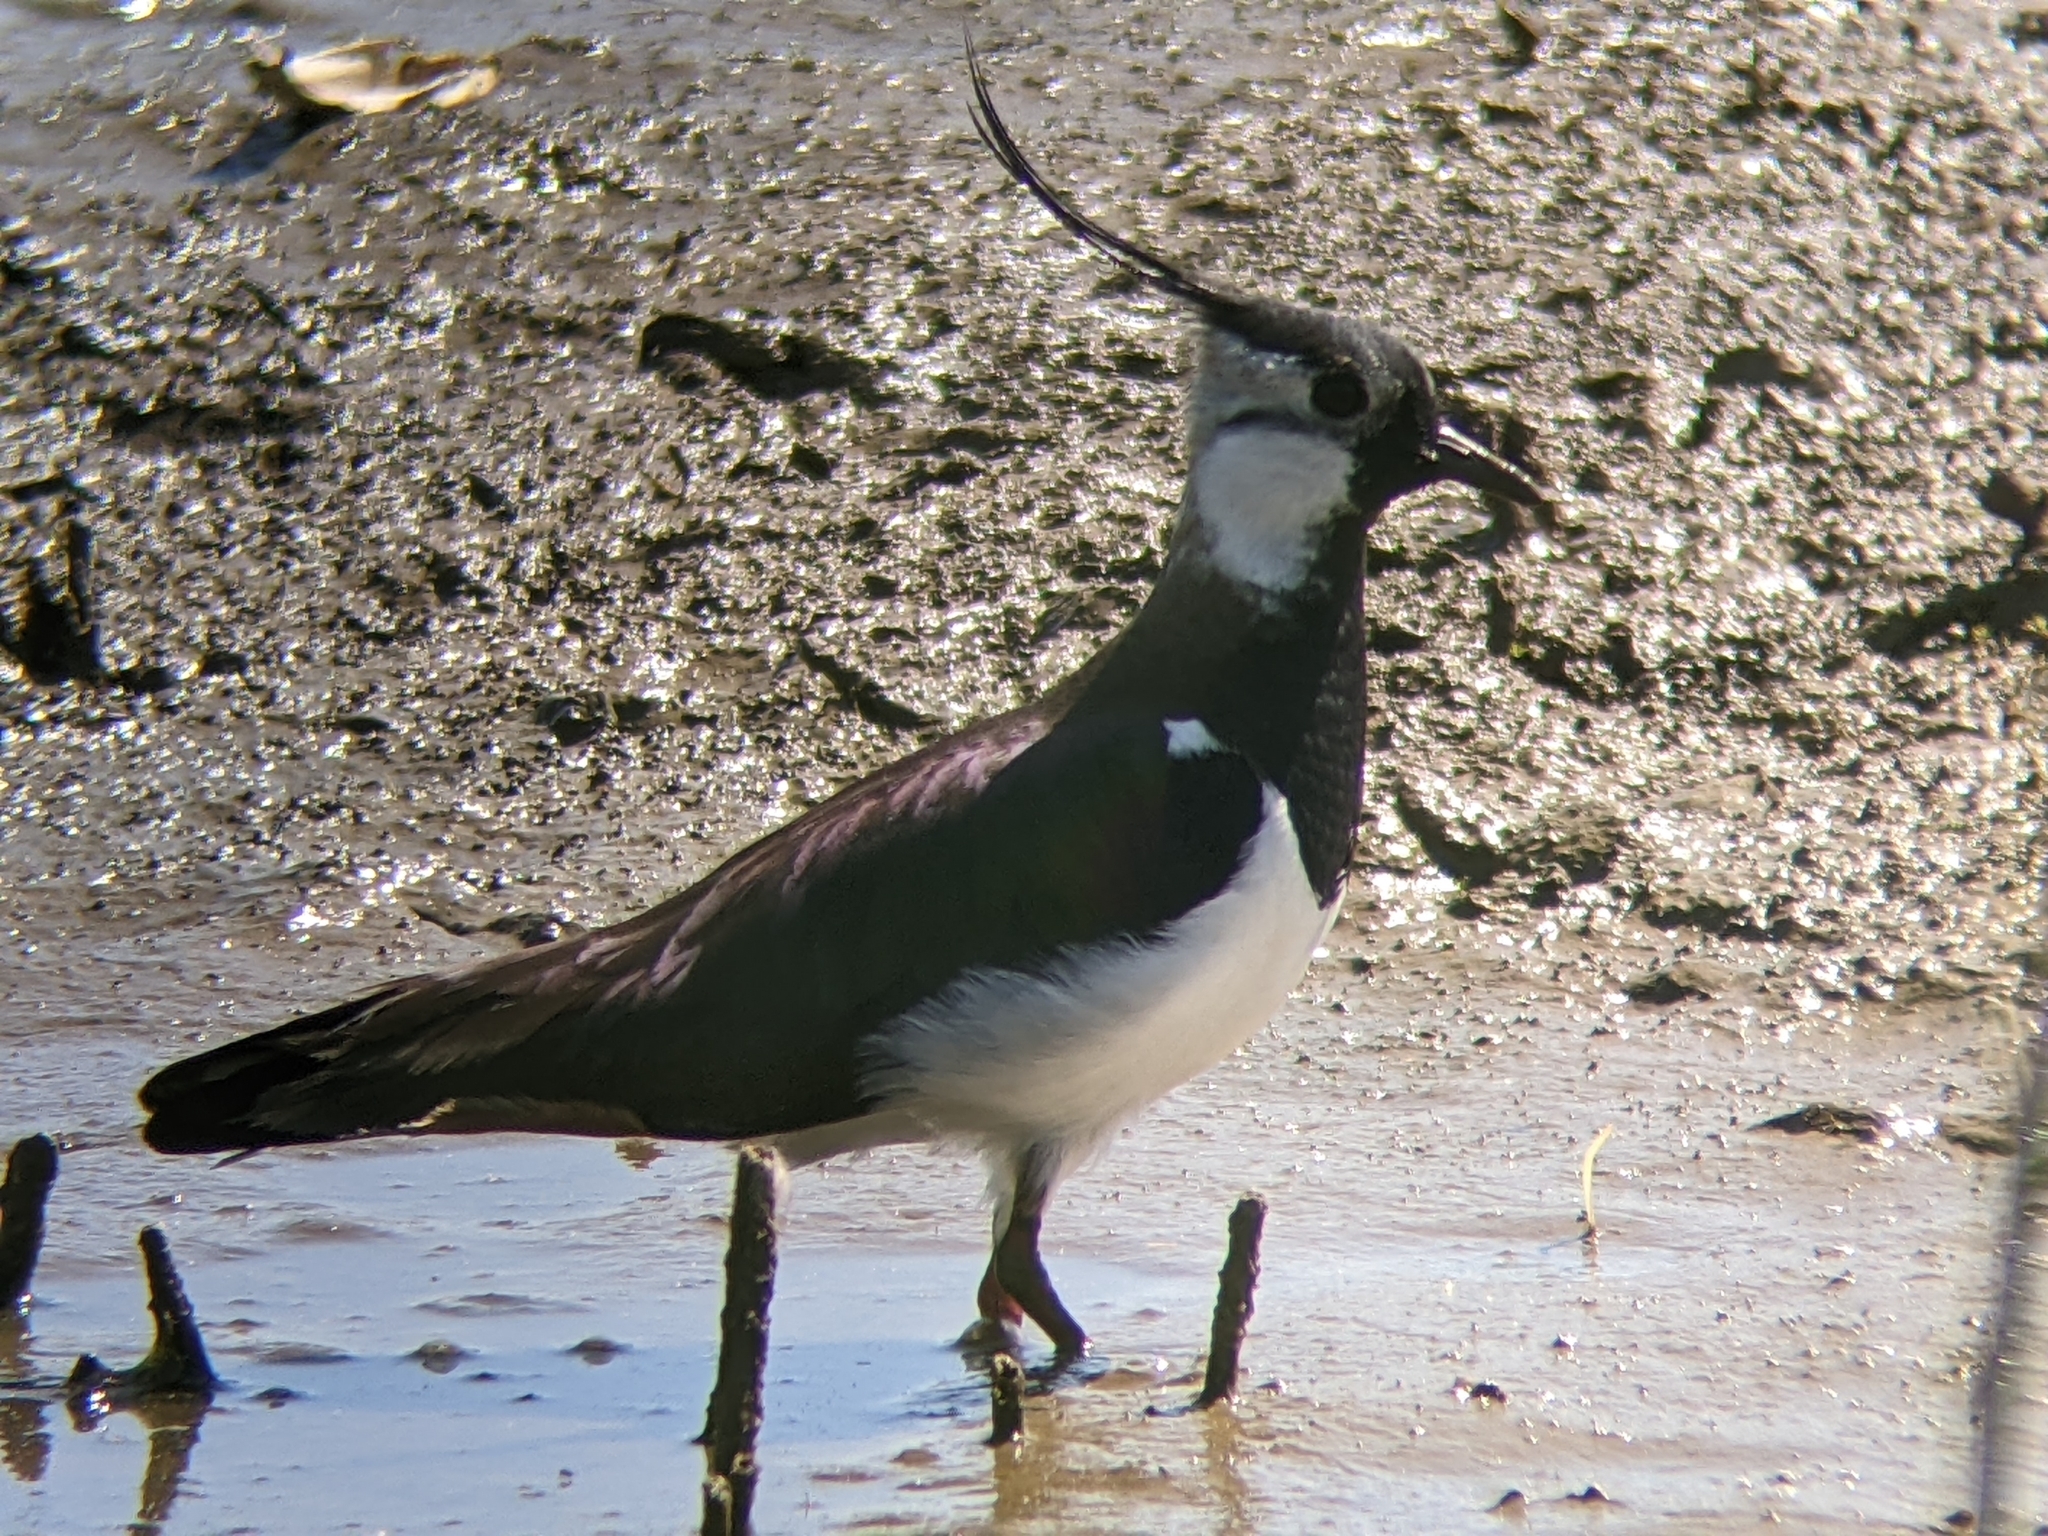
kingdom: Animalia
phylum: Chordata
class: Aves
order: Charadriiformes
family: Charadriidae
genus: Vanellus
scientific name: Vanellus vanellus
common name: Northern lapwing
